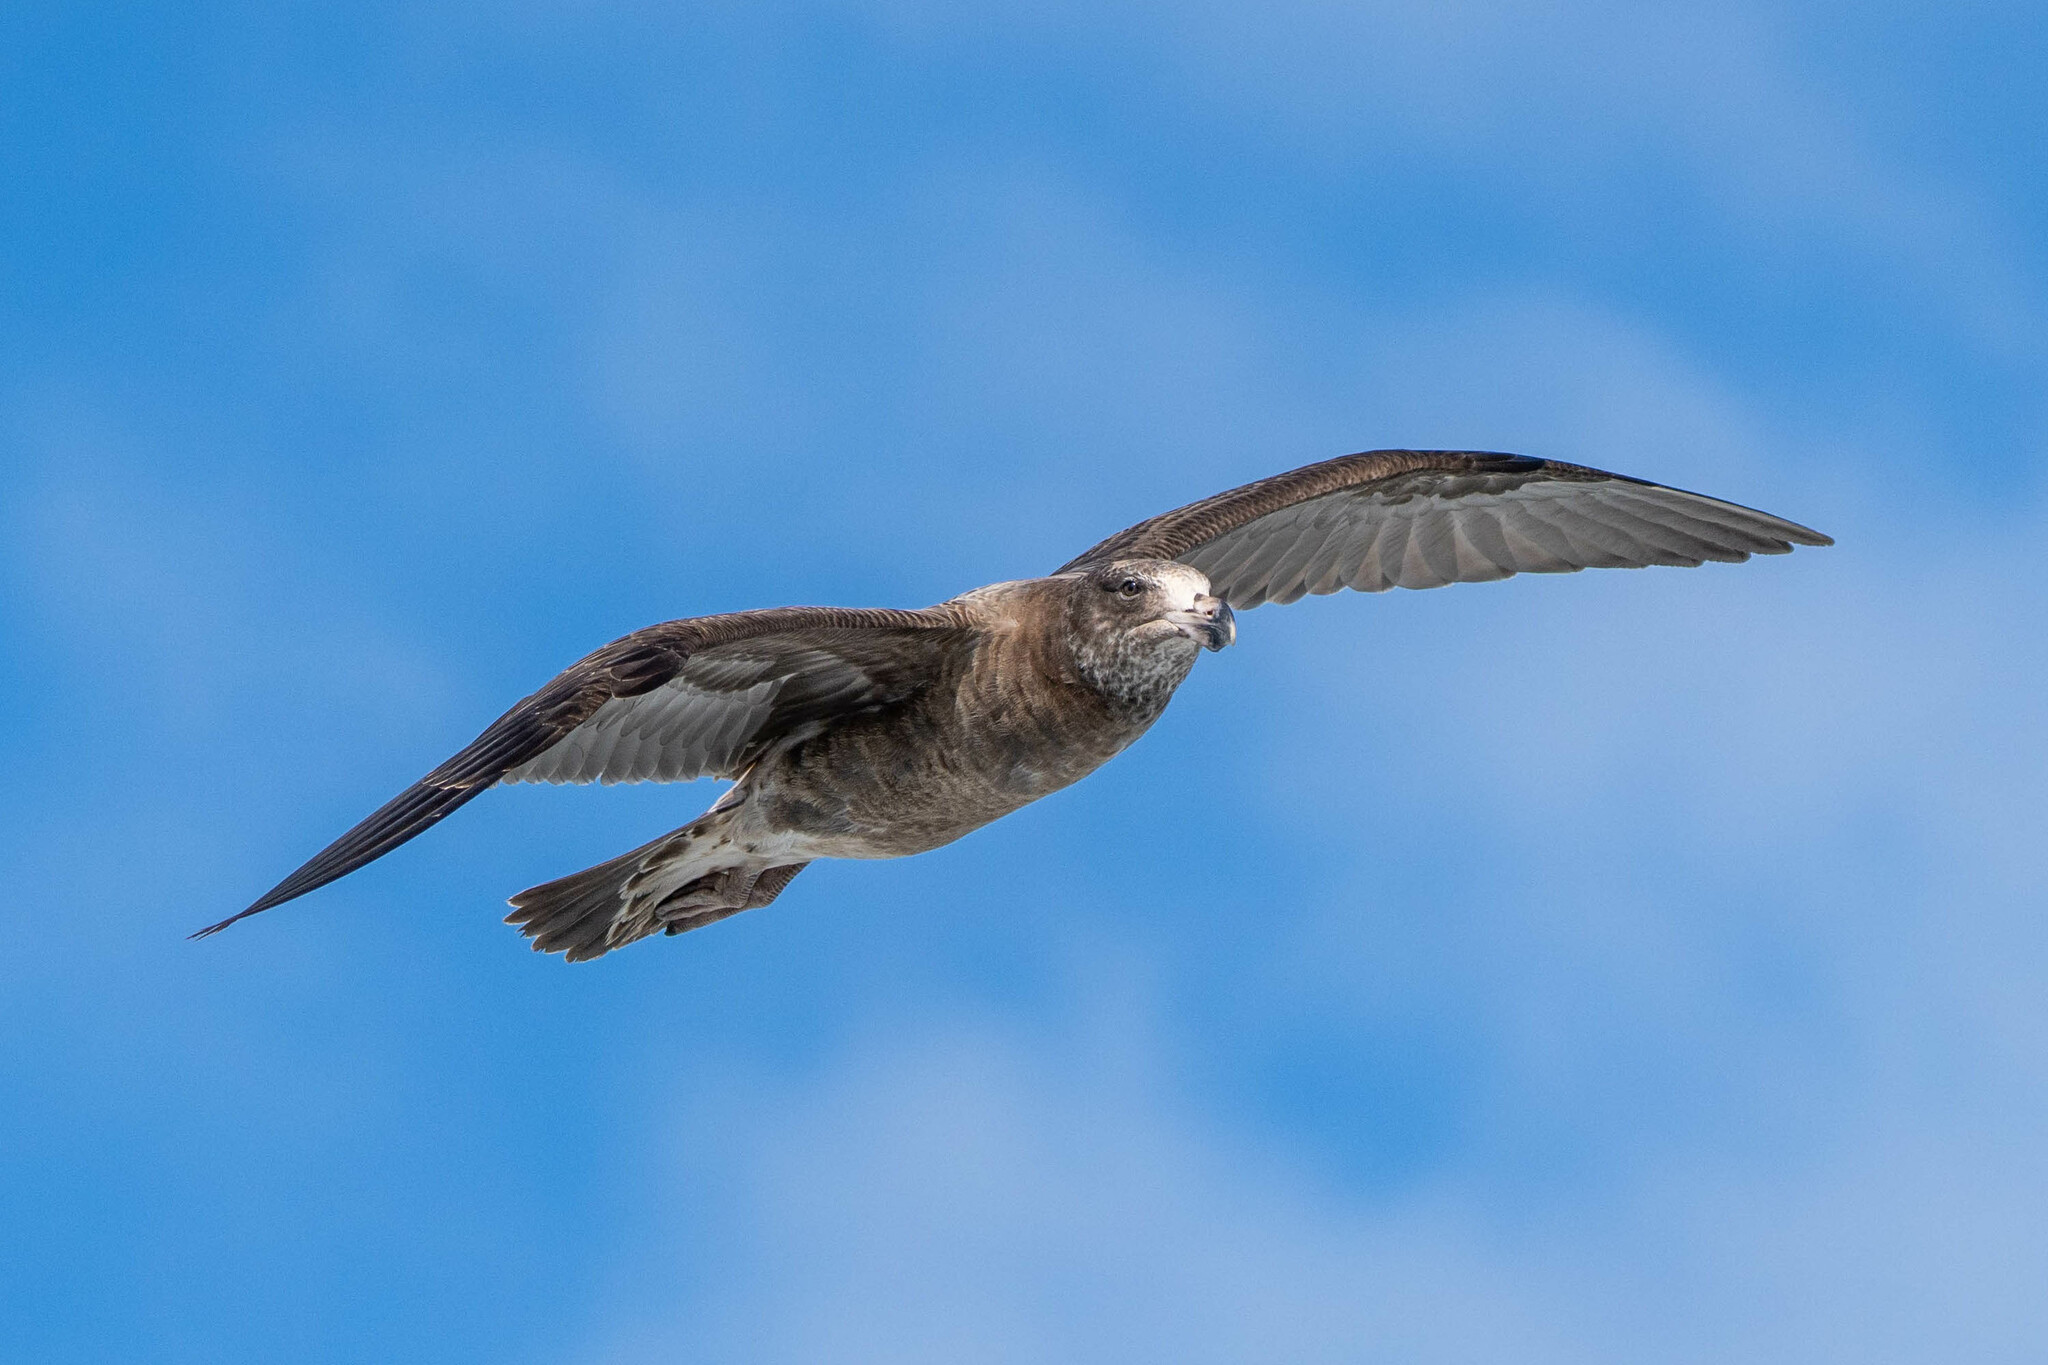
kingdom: Animalia
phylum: Chordata
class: Aves
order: Charadriiformes
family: Laridae
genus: Larus
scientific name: Larus pacificus
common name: Pacific gull
